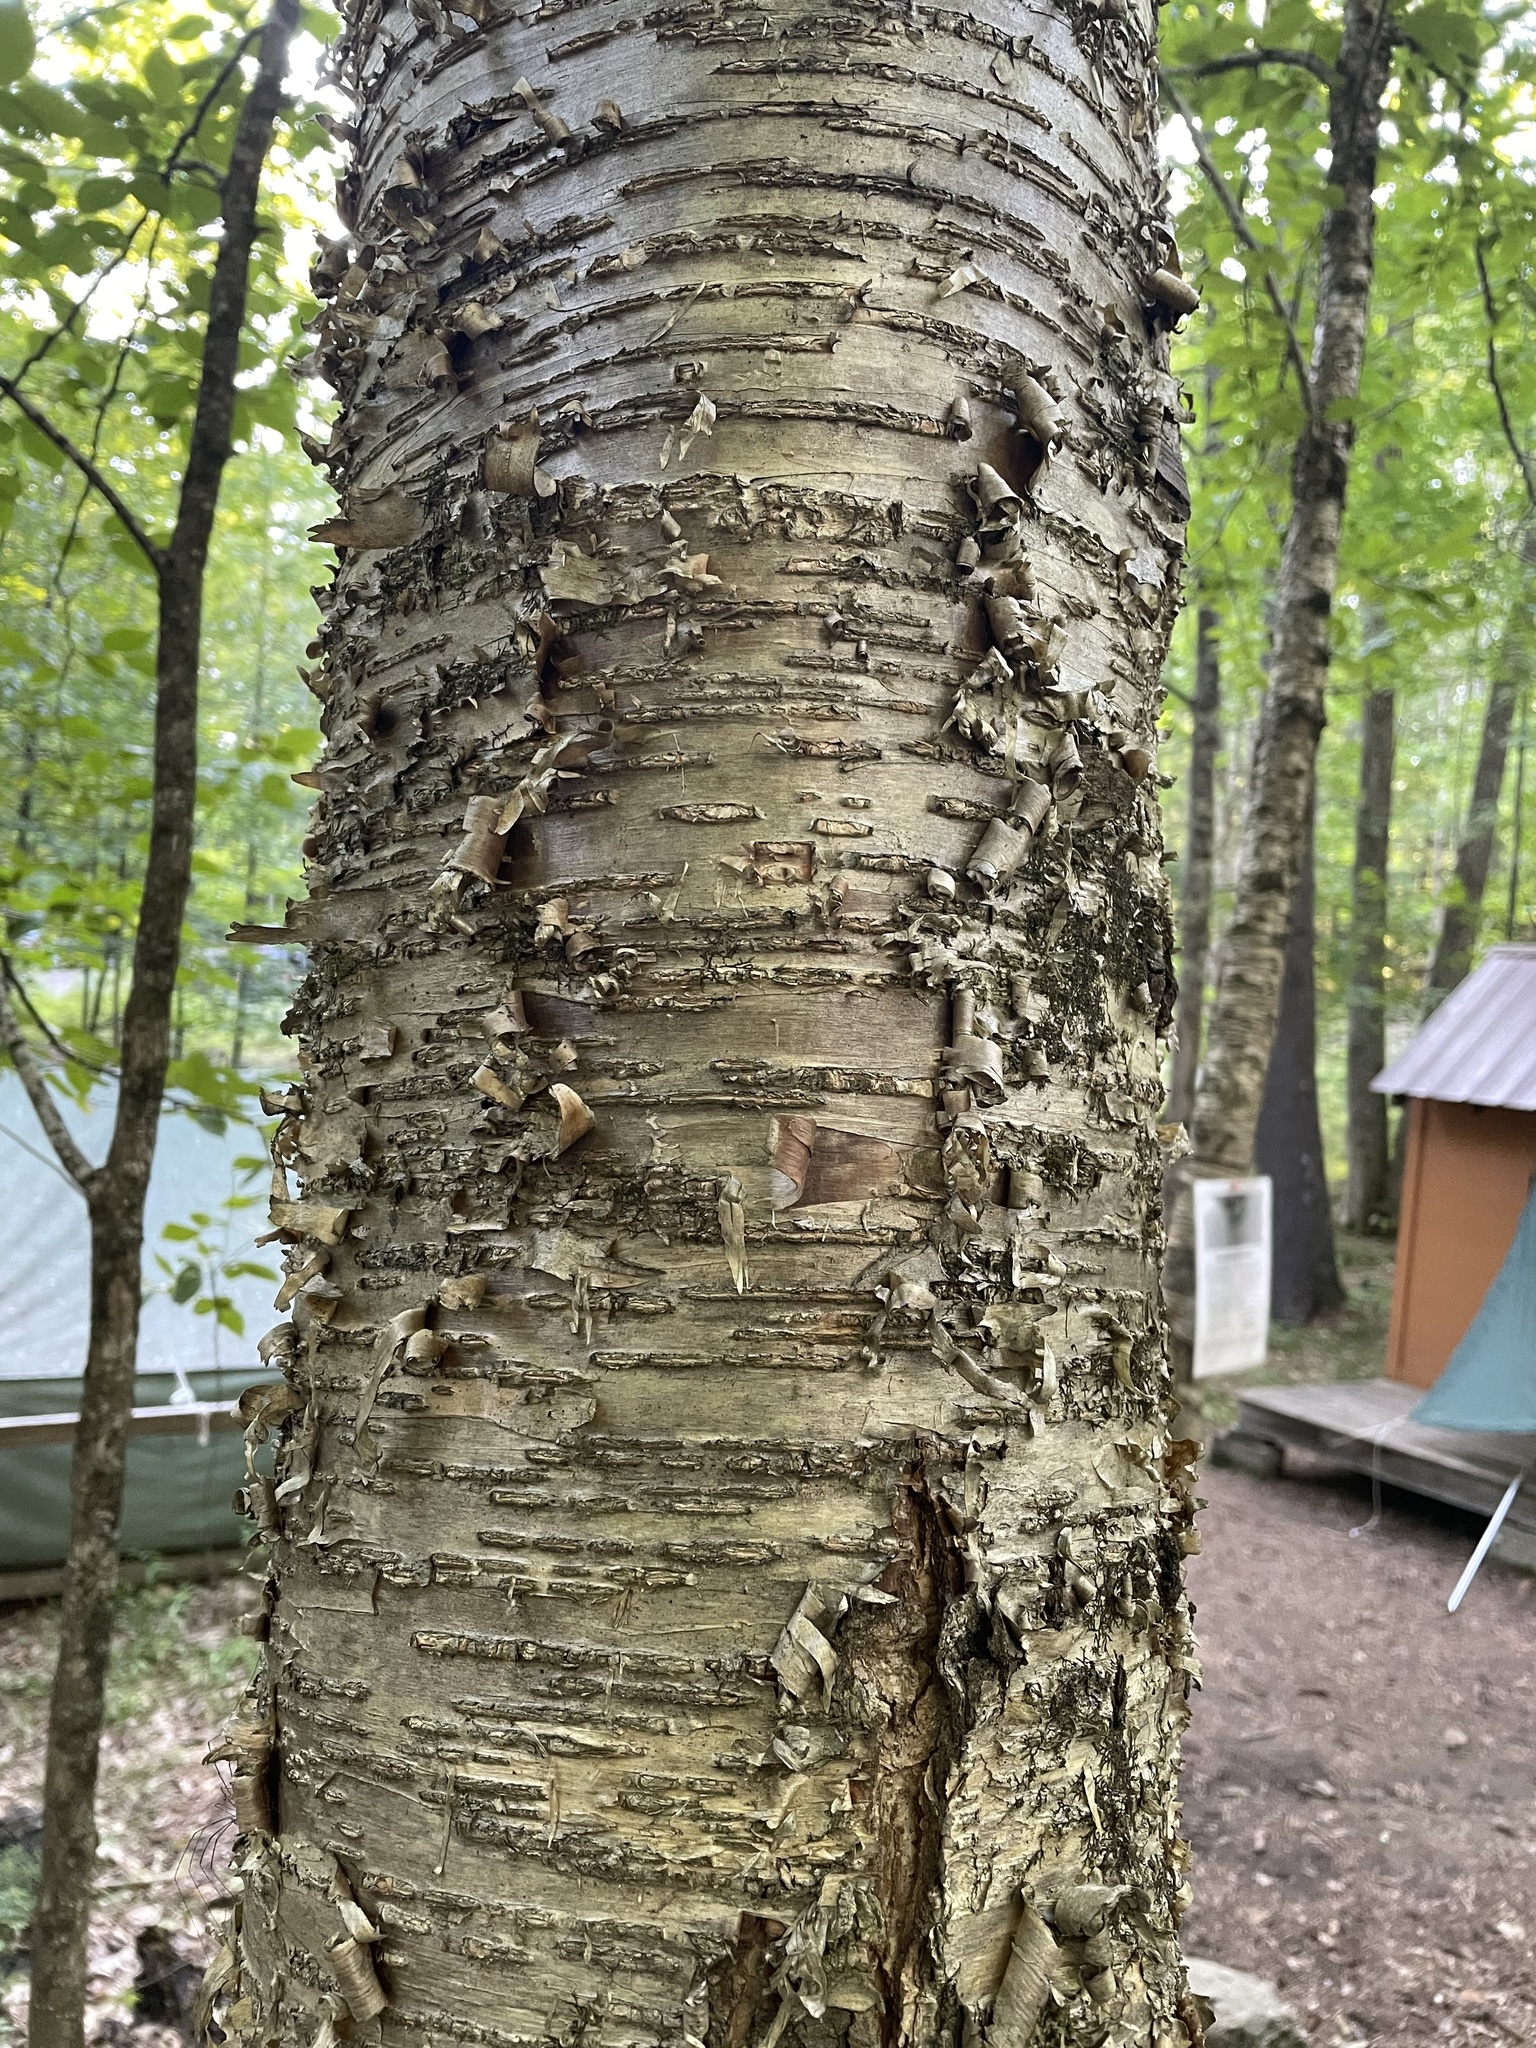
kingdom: Plantae
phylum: Tracheophyta
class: Magnoliopsida
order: Fagales
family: Betulaceae
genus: Betula
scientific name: Betula alleghaniensis
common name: Yellow birch
